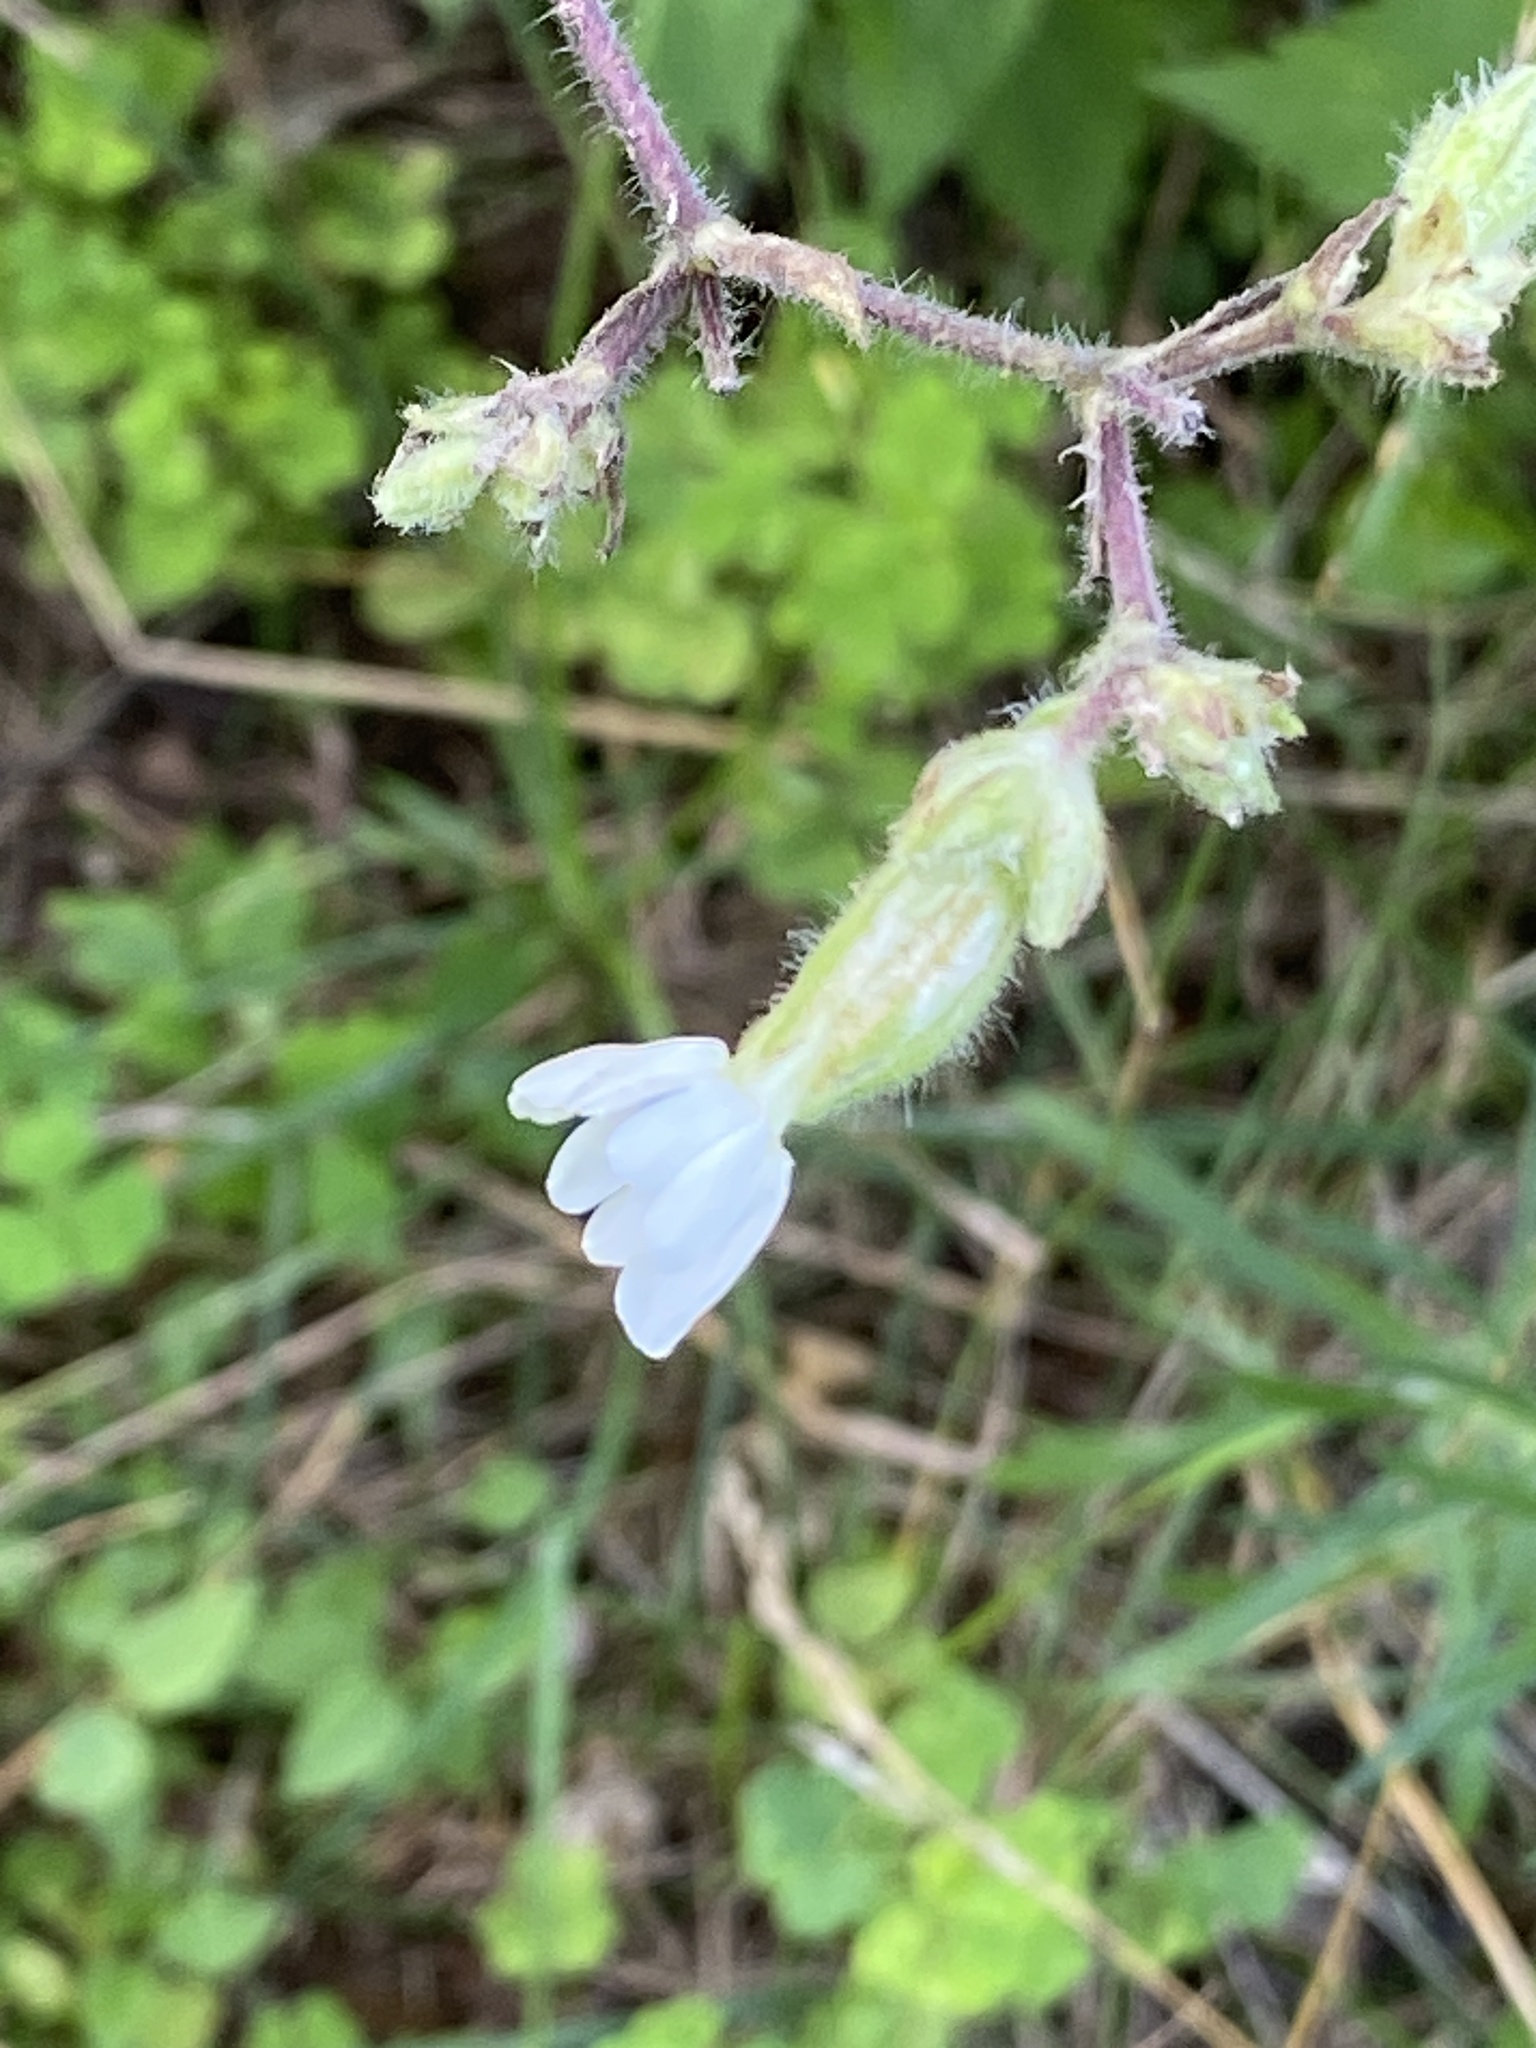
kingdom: Plantae
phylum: Tracheophyta
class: Magnoliopsida
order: Caryophyllales
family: Caryophyllaceae
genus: Silene
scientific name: Silene latifolia
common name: White campion
